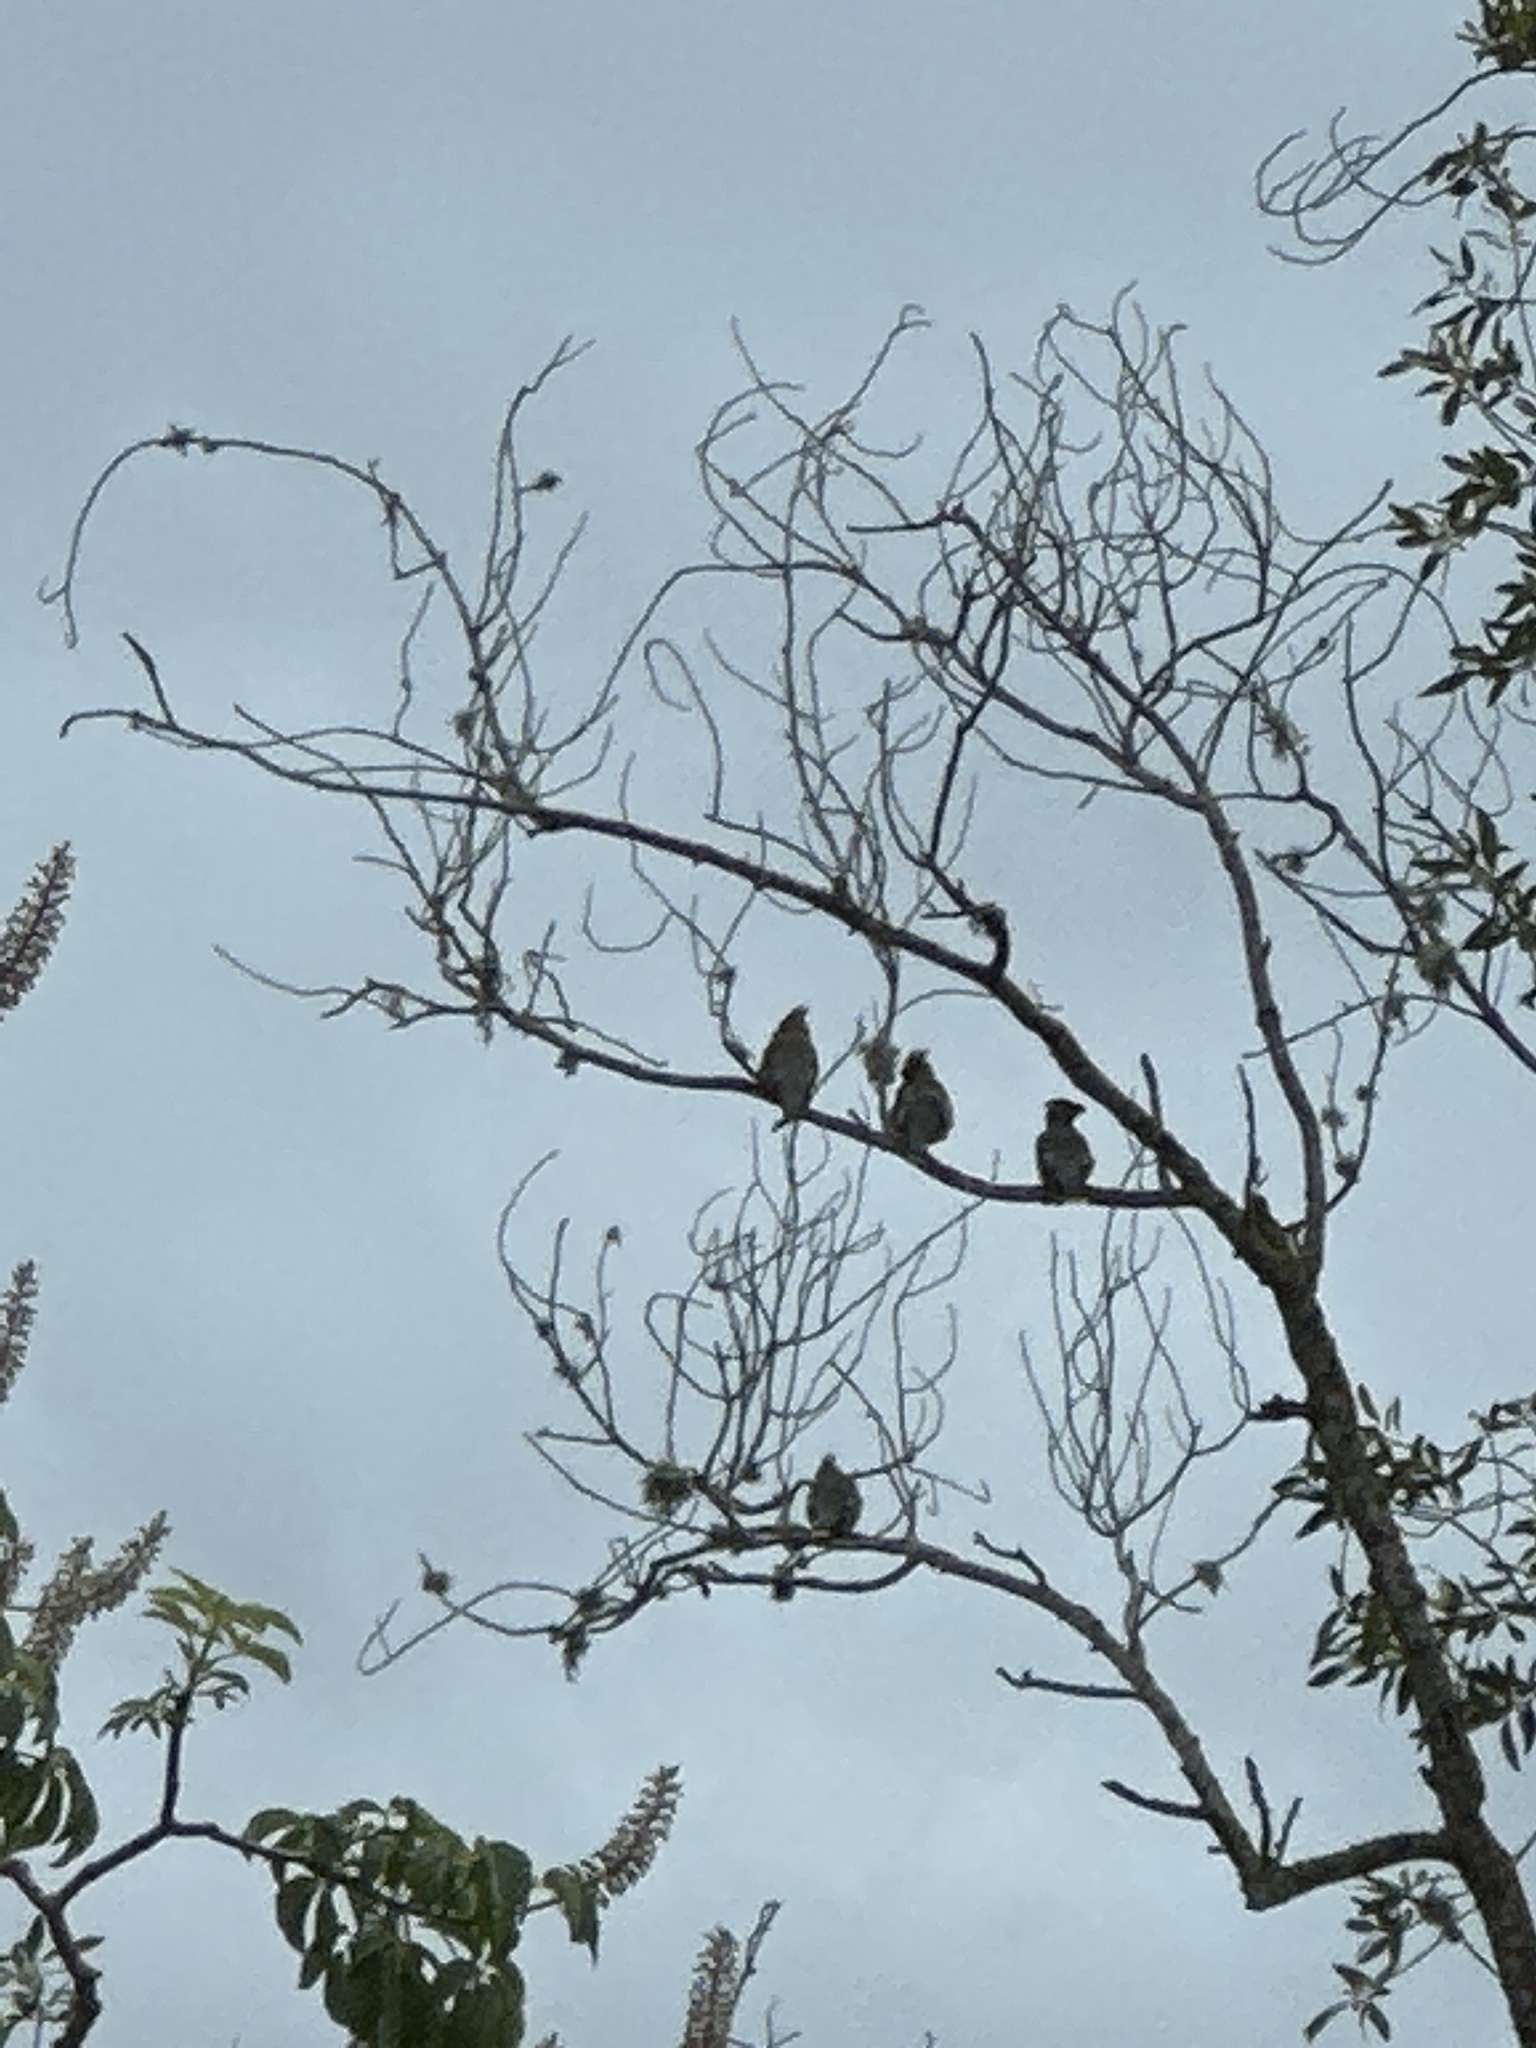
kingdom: Animalia
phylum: Chordata
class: Aves
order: Passeriformes
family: Bombycillidae
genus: Bombycilla
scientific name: Bombycilla cedrorum
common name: Cedar waxwing
